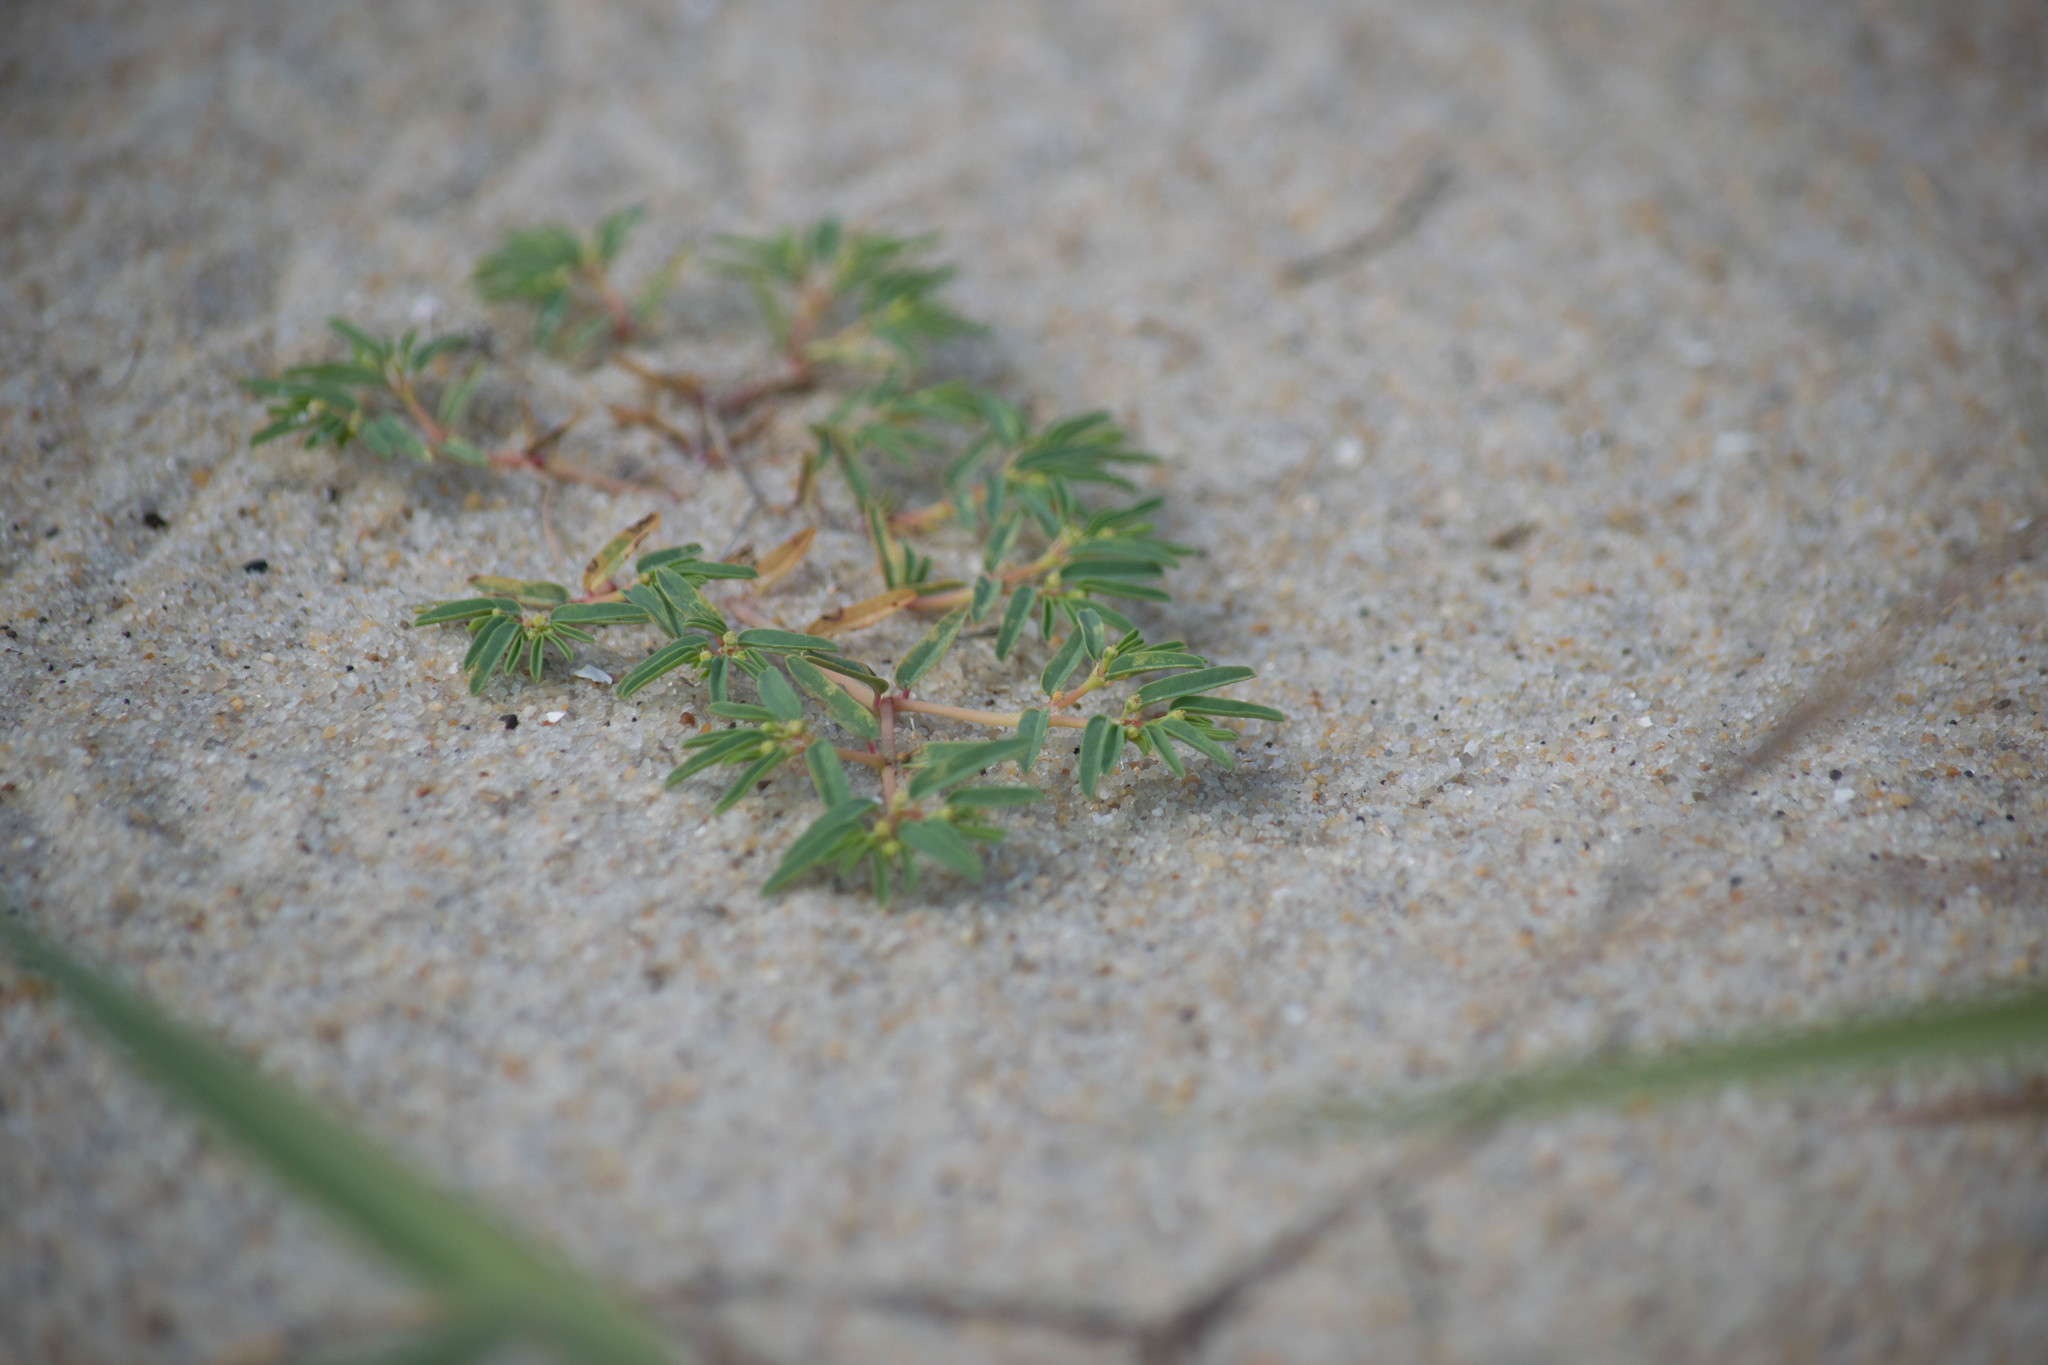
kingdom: Plantae
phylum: Tracheophyta
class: Magnoliopsida
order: Malpighiales
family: Euphorbiaceae
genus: Euphorbia
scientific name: Euphorbia polygonifolia
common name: Knotweed spurge
